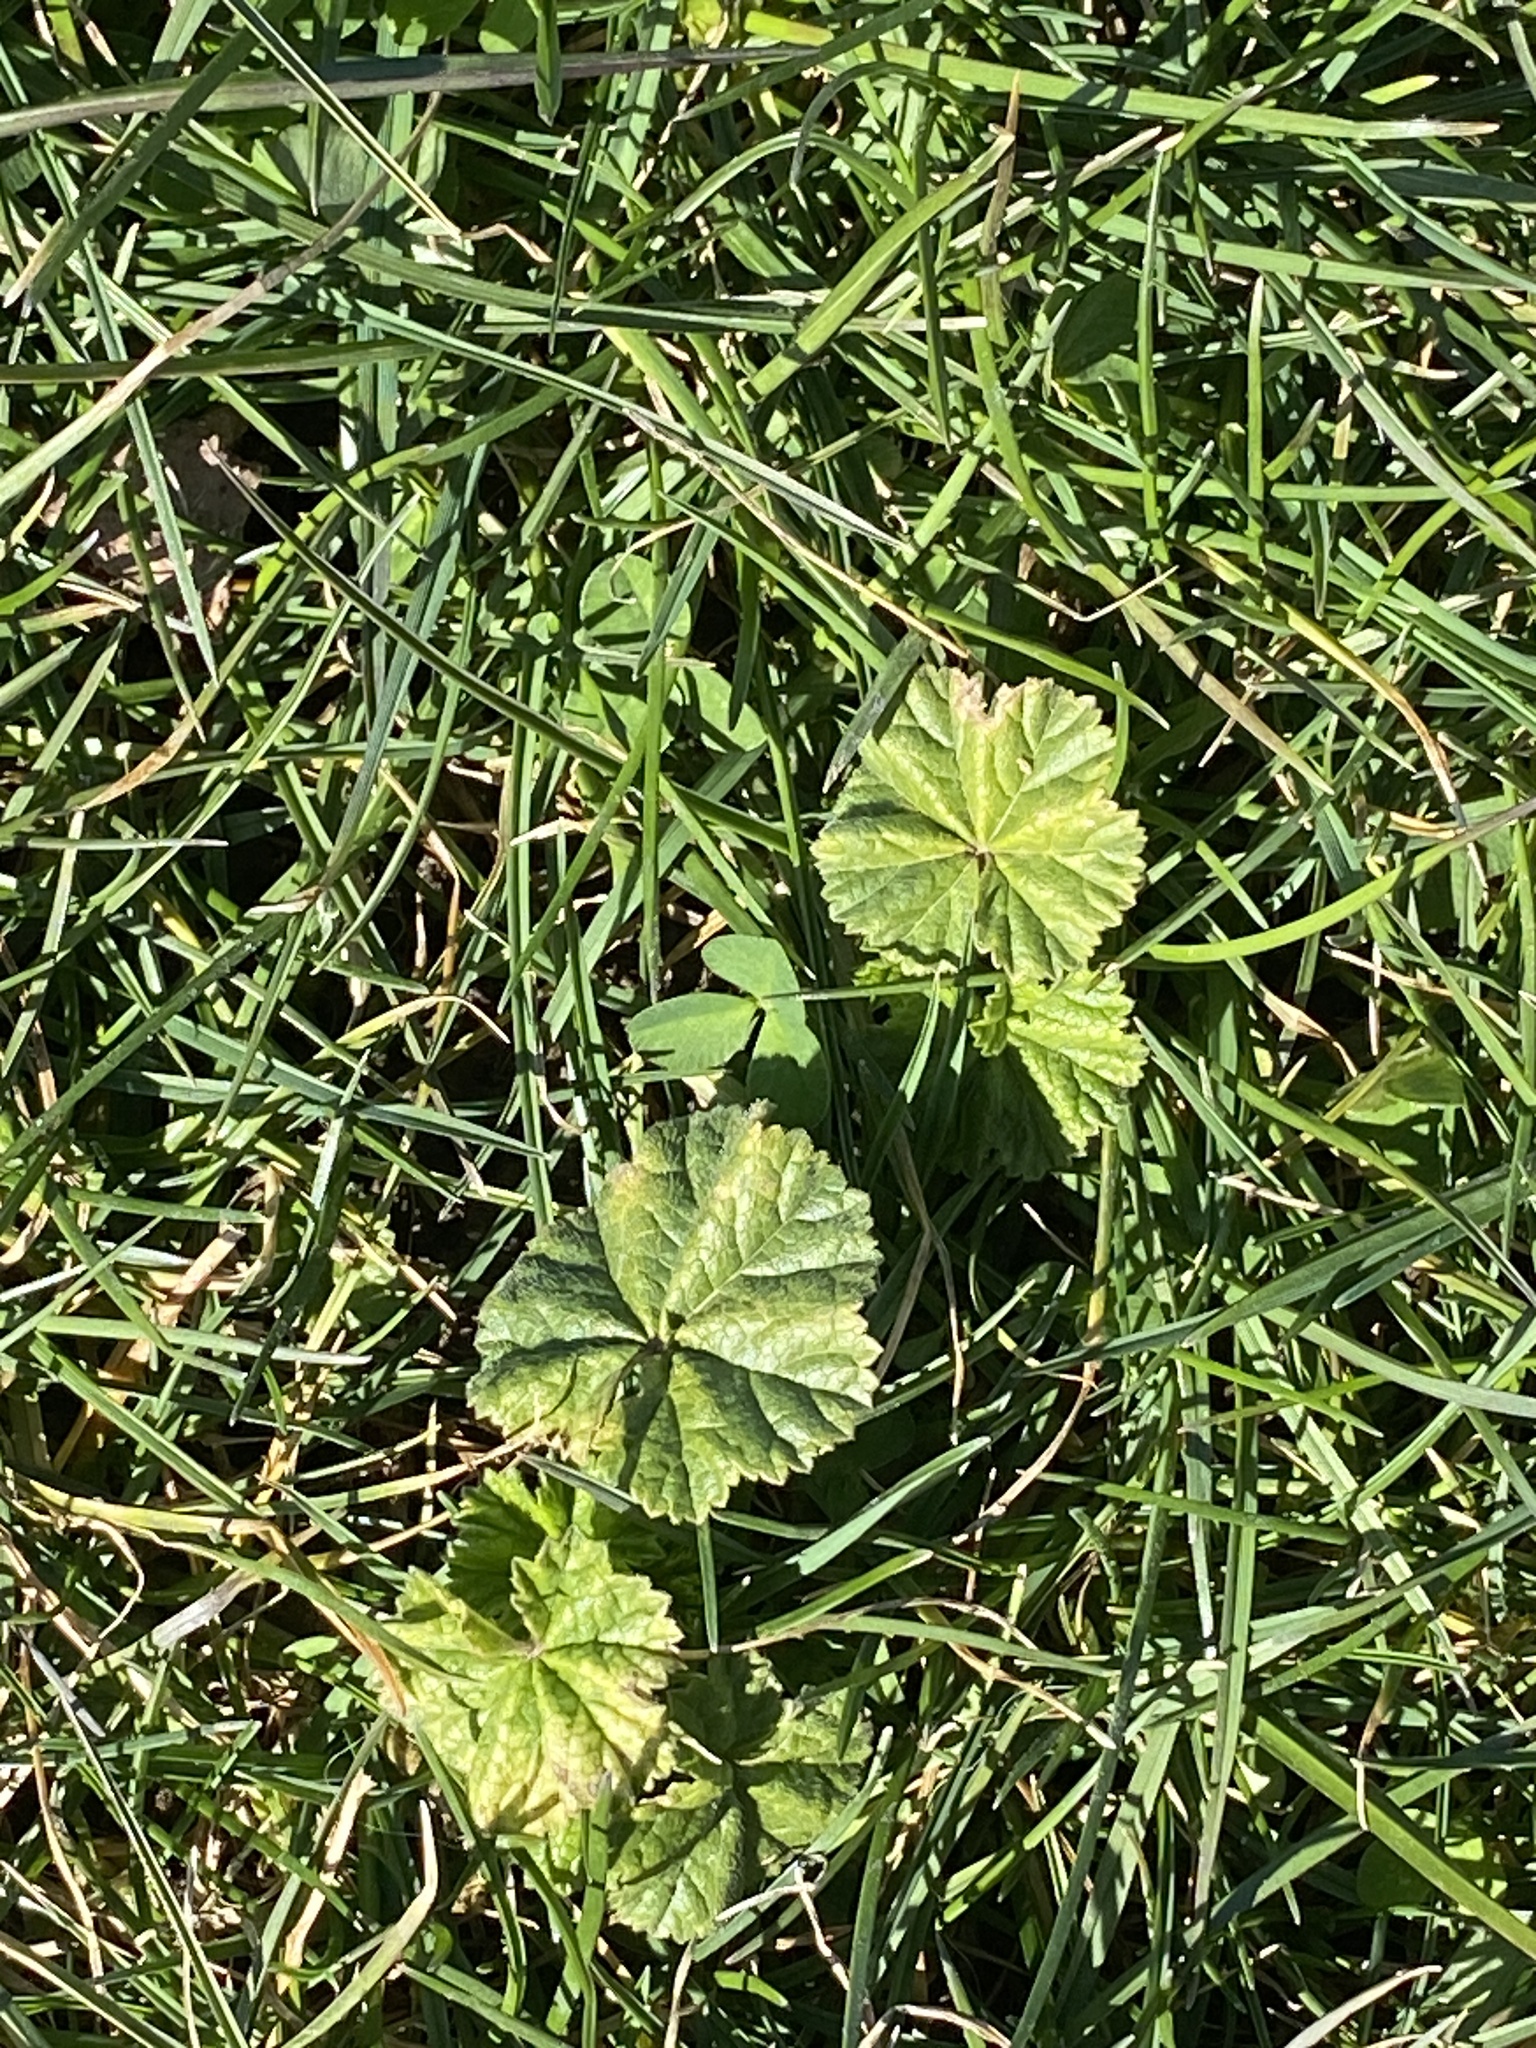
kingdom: Plantae
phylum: Tracheophyta
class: Magnoliopsida
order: Malvales
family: Malvaceae
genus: Malva
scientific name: Malva neglecta
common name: Common mallow
